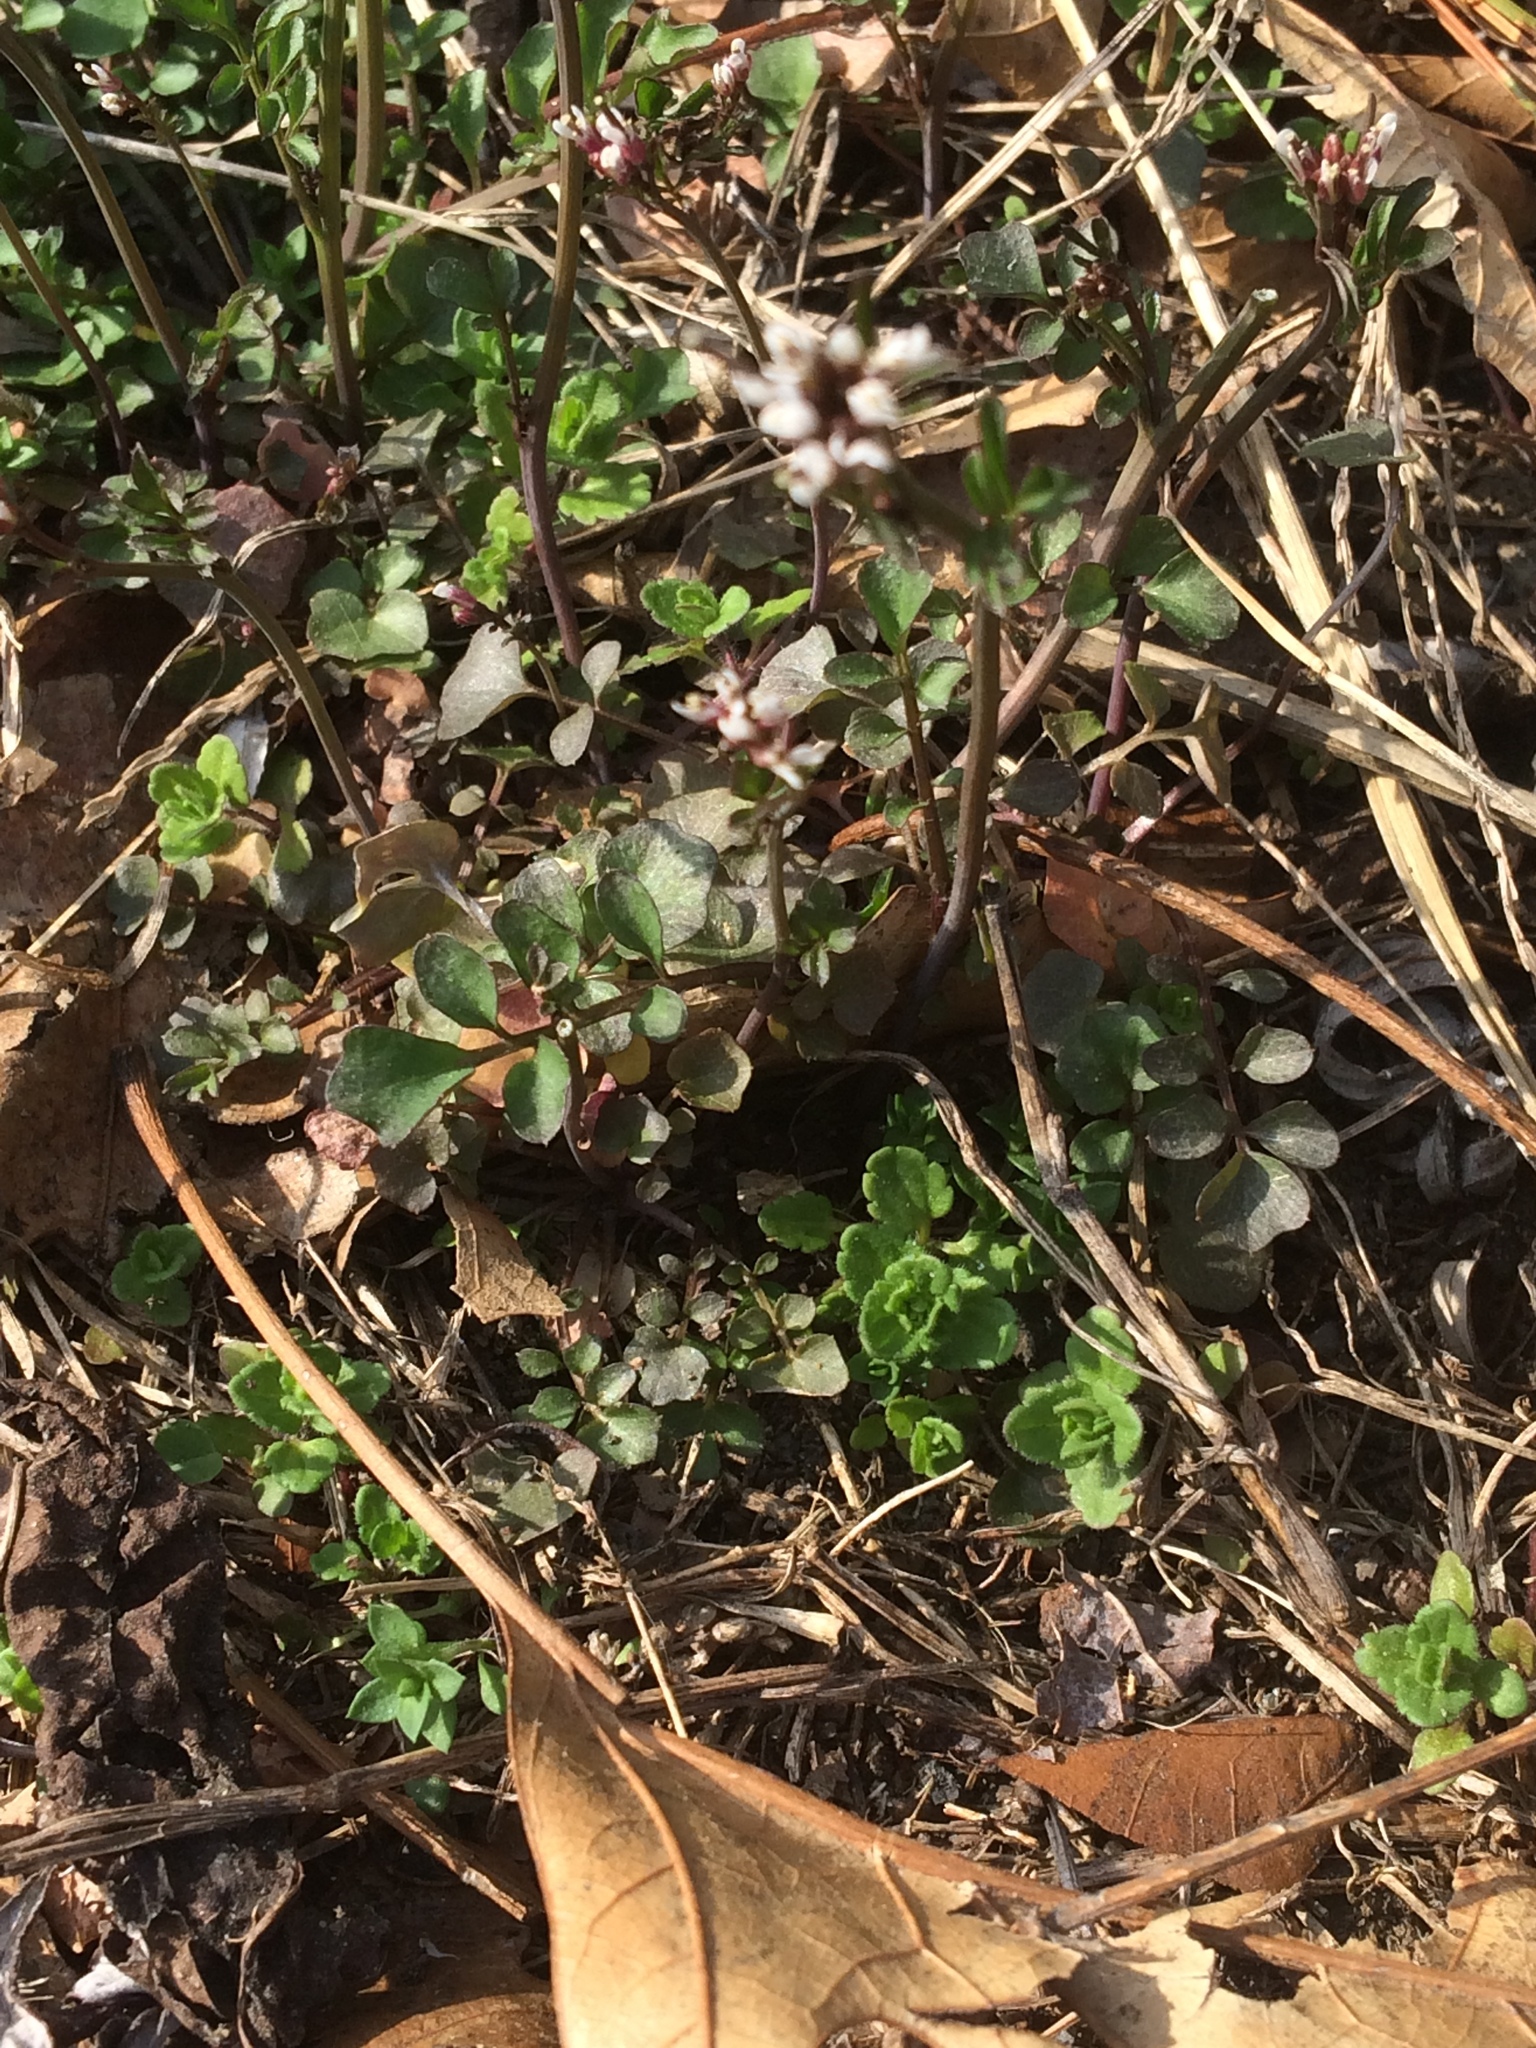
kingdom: Plantae
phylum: Tracheophyta
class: Magnoliopsida
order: Brassicales
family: Brassicaceae
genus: Cardamine
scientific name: Cardamine hirsuta
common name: Hairy bittercress
